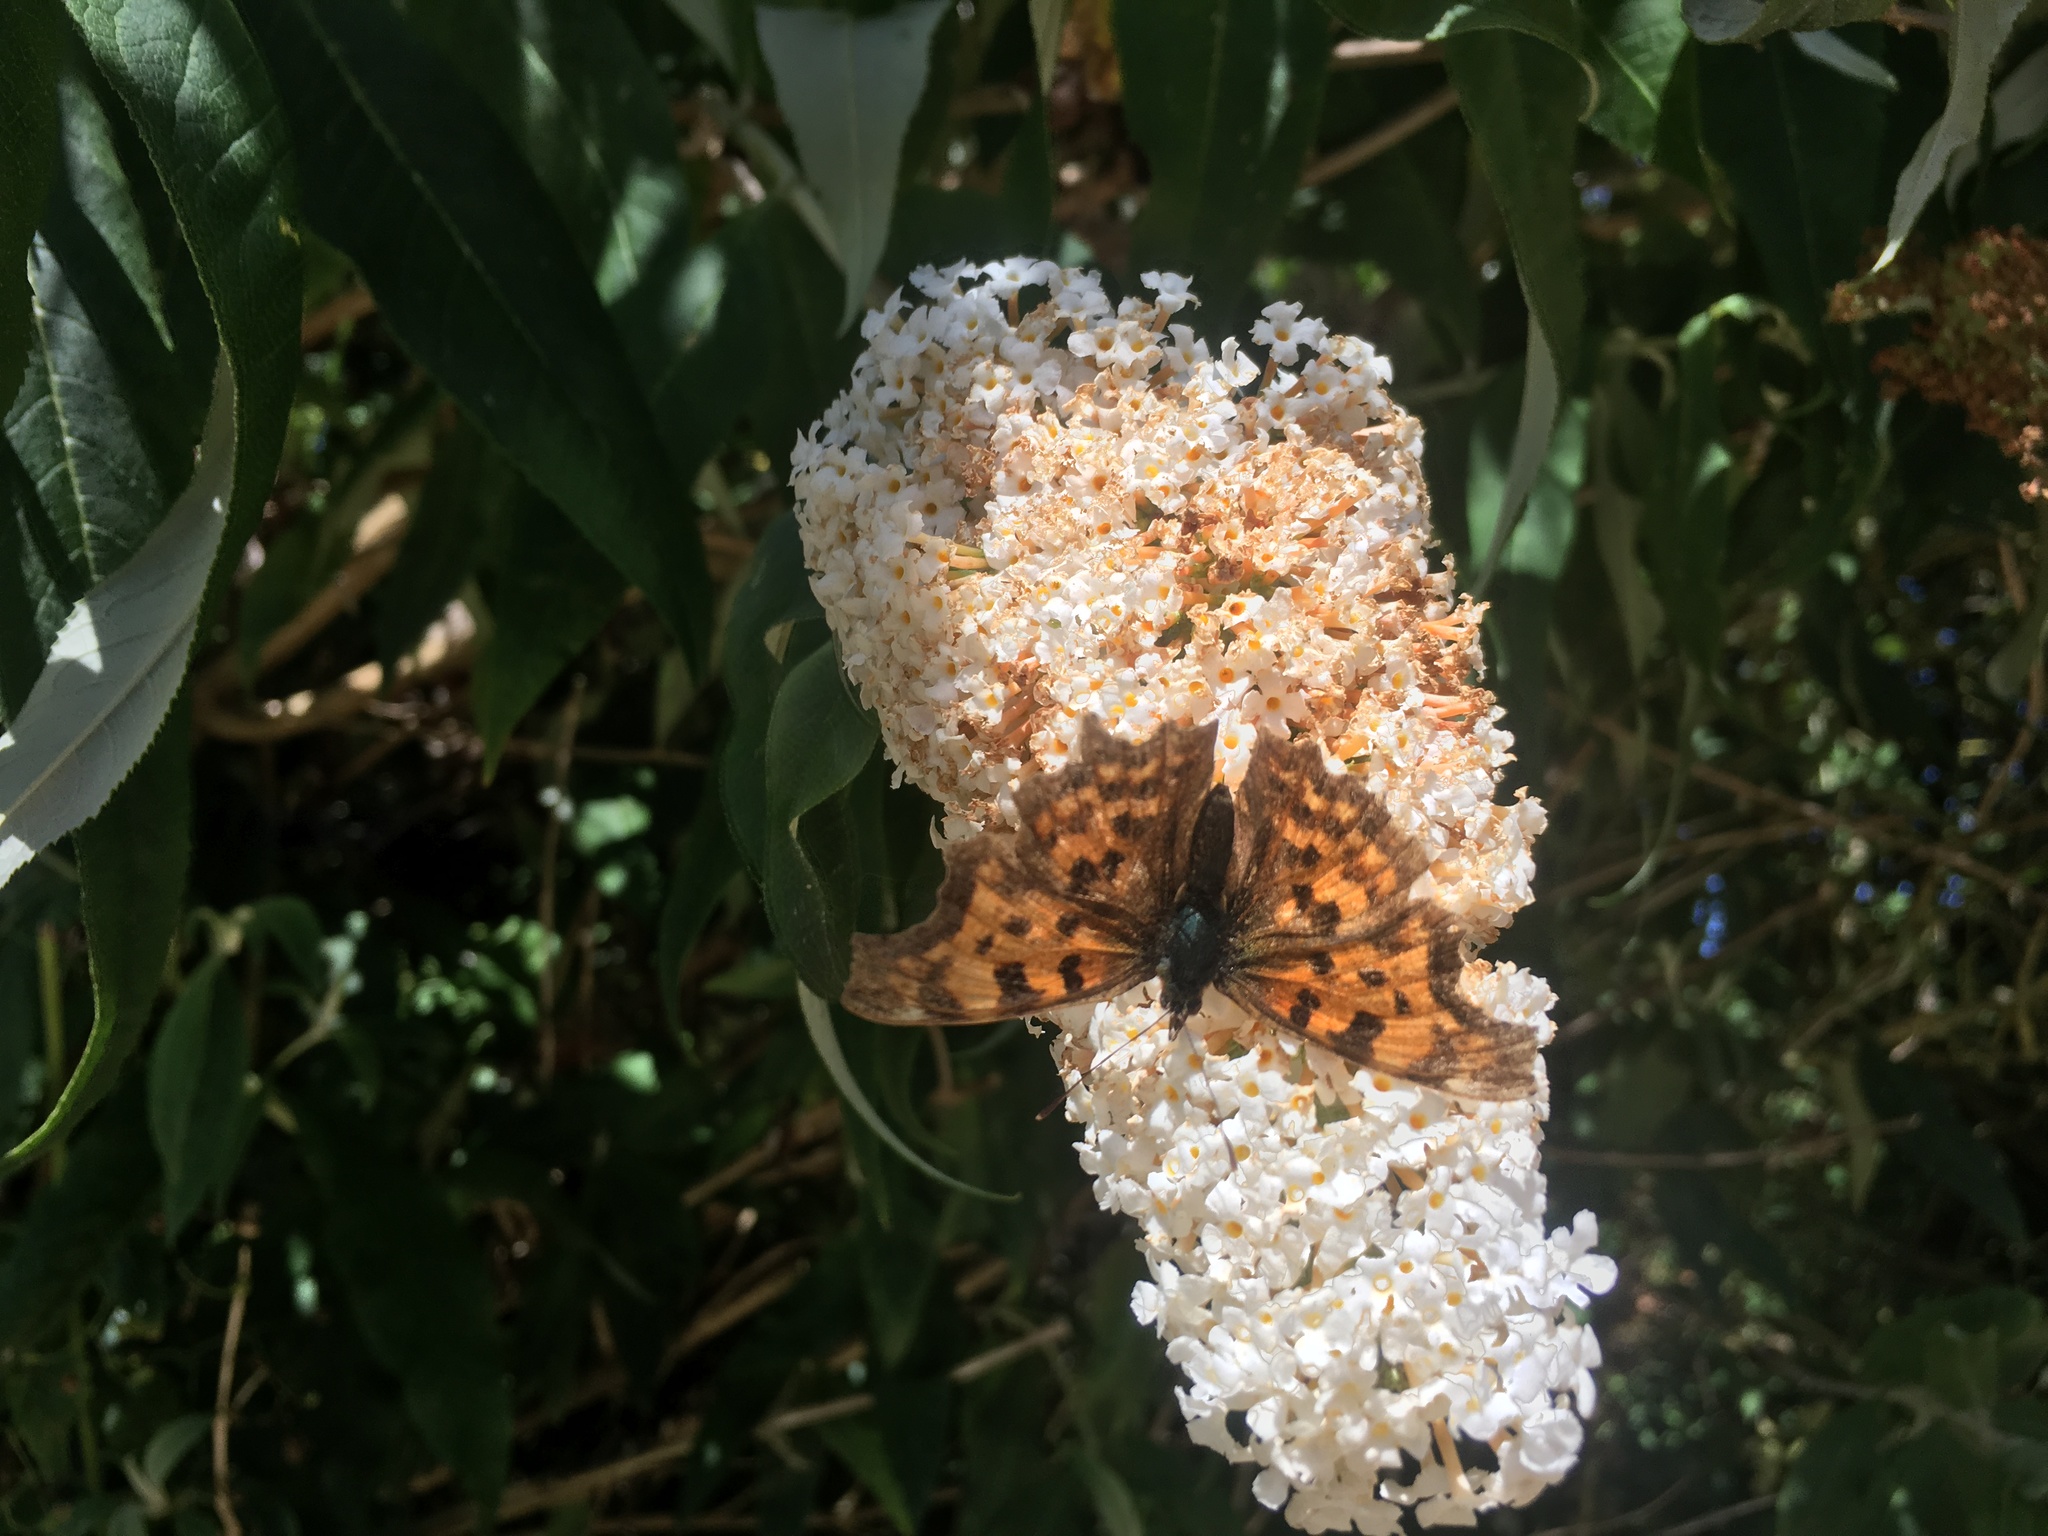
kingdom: Animalia
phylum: Arthropoda
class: Insecta
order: Lepidoptera
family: Nymphalidae
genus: Polygonia
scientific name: Polygonia c-album
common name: Comma
